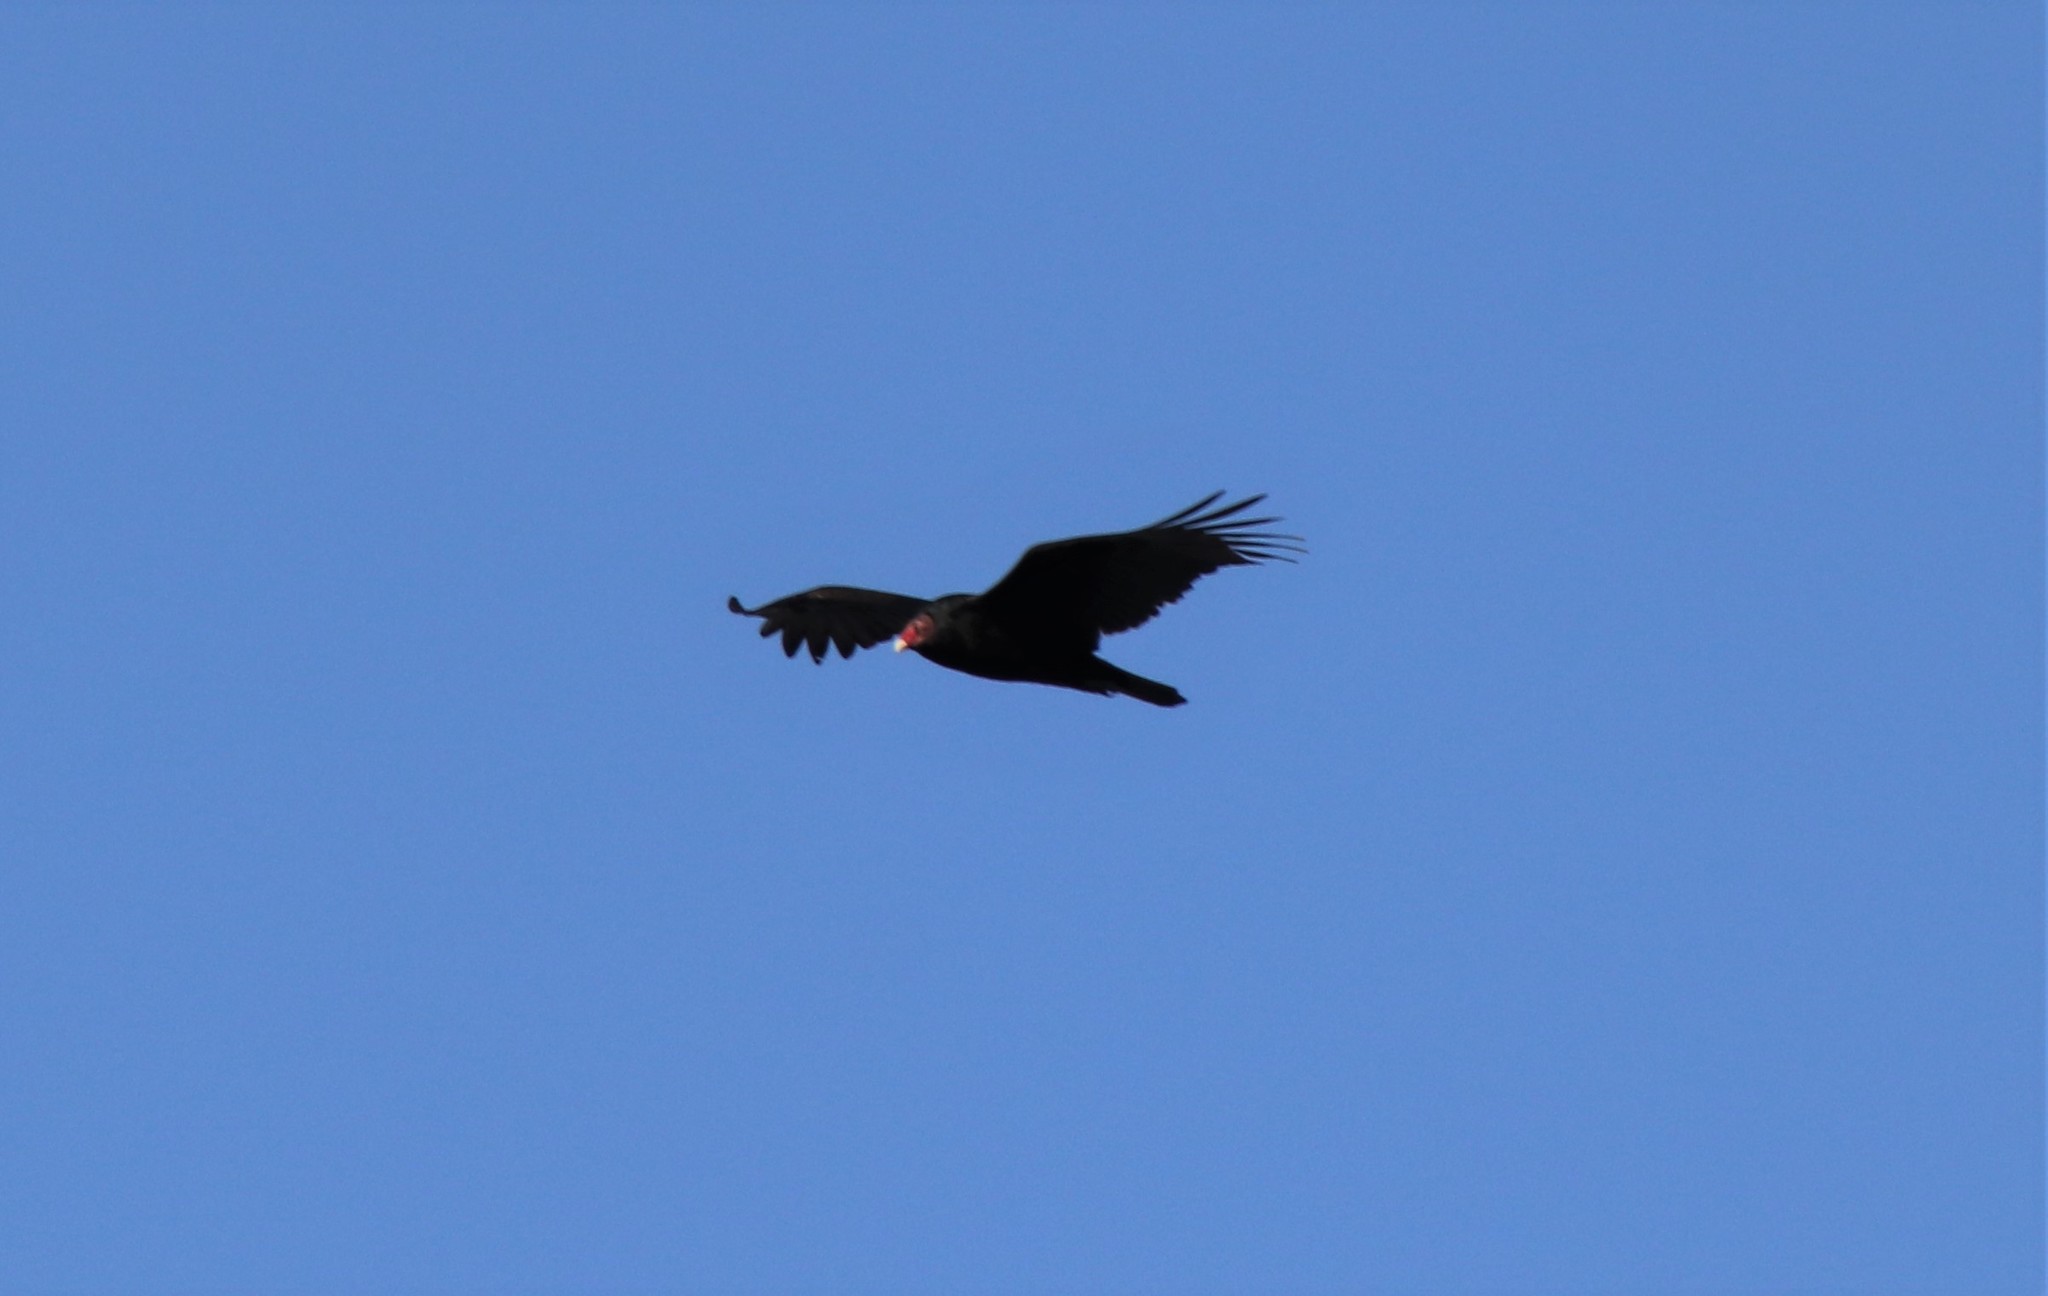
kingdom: Animalia
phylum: Chordata
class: Aves
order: Accipitriformes
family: Cathartidae
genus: Cathartes
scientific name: Cathartes aura
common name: Turkey vulture
